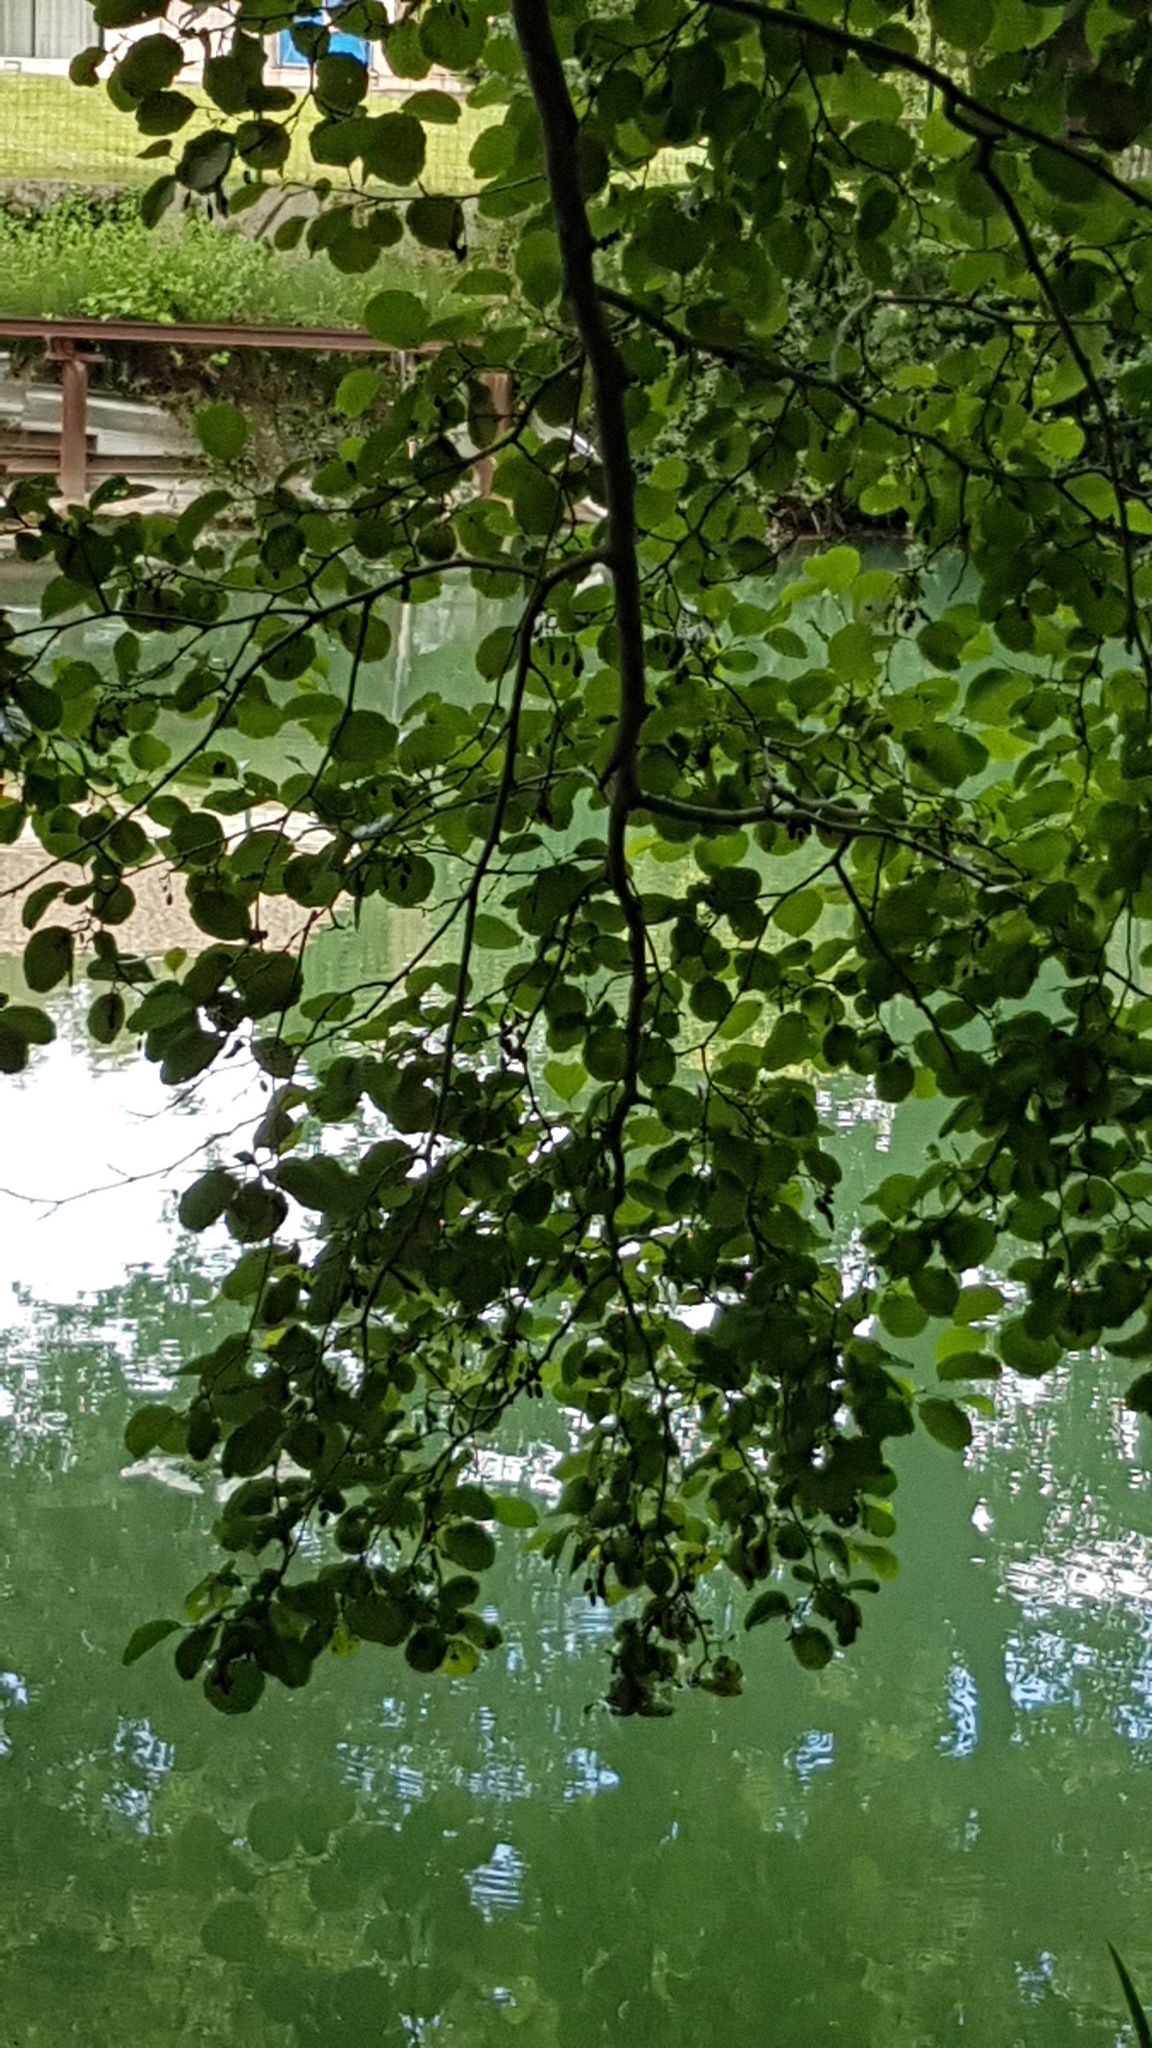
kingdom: Plantae
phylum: Tracheophyta
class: Magnoliopsida
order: Fagales
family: Betulaceae
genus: Alnus
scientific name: Alnus glutinosa
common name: Black alder
